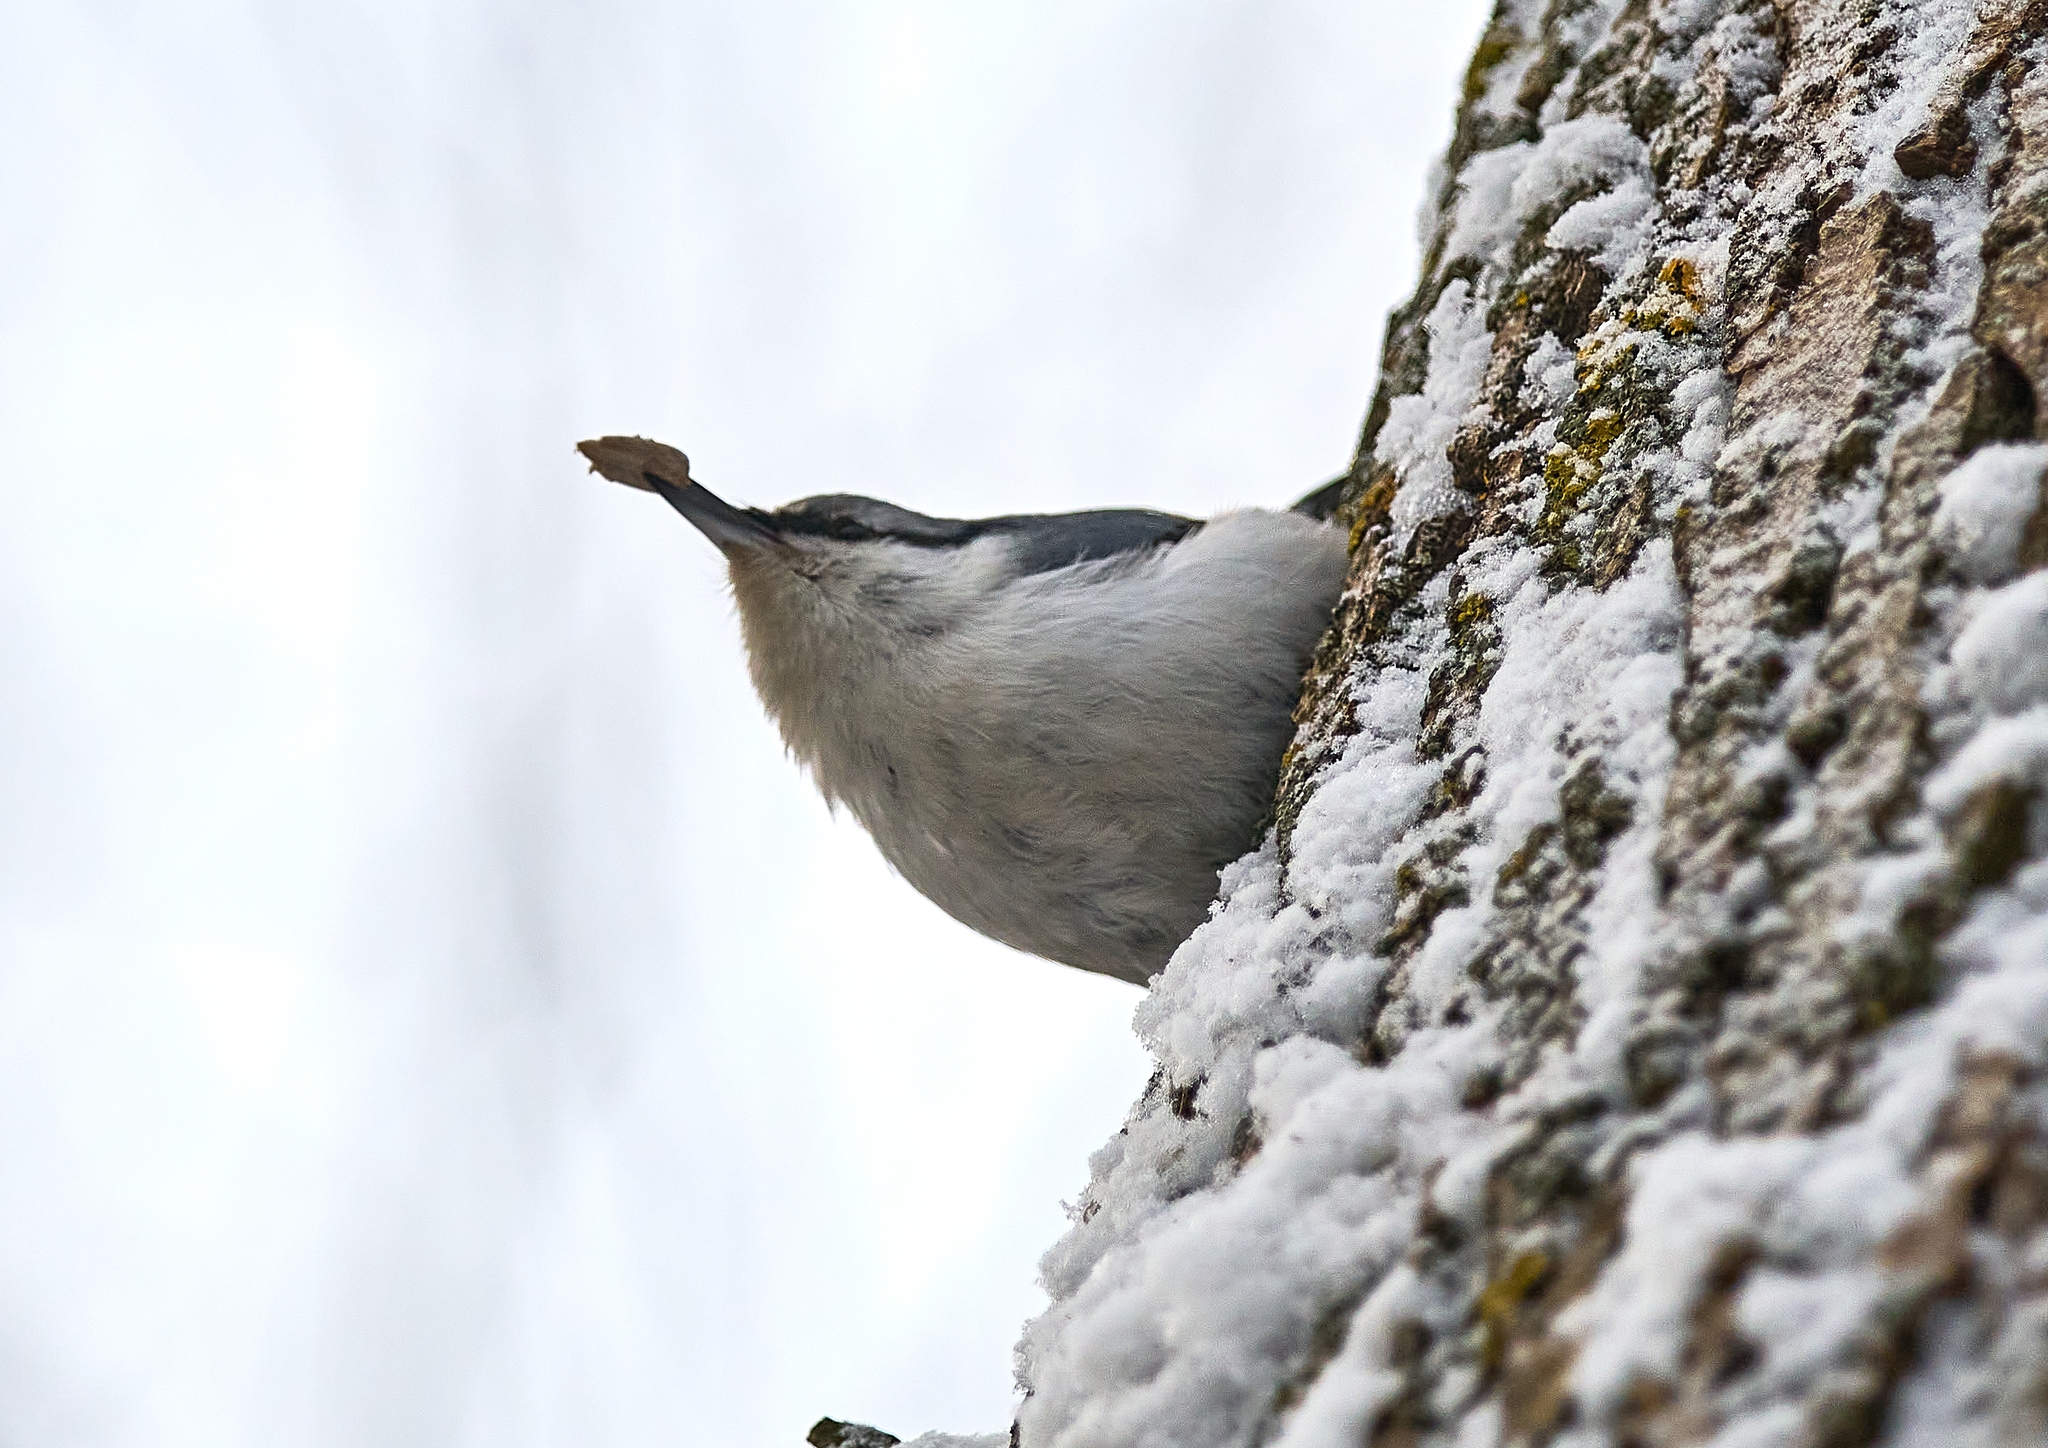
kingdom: Animalia
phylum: Chordata
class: Aves
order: Passeriformes
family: Sittidae
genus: Sitta
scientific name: Sitta europaea
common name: Eurasian nuthatch
